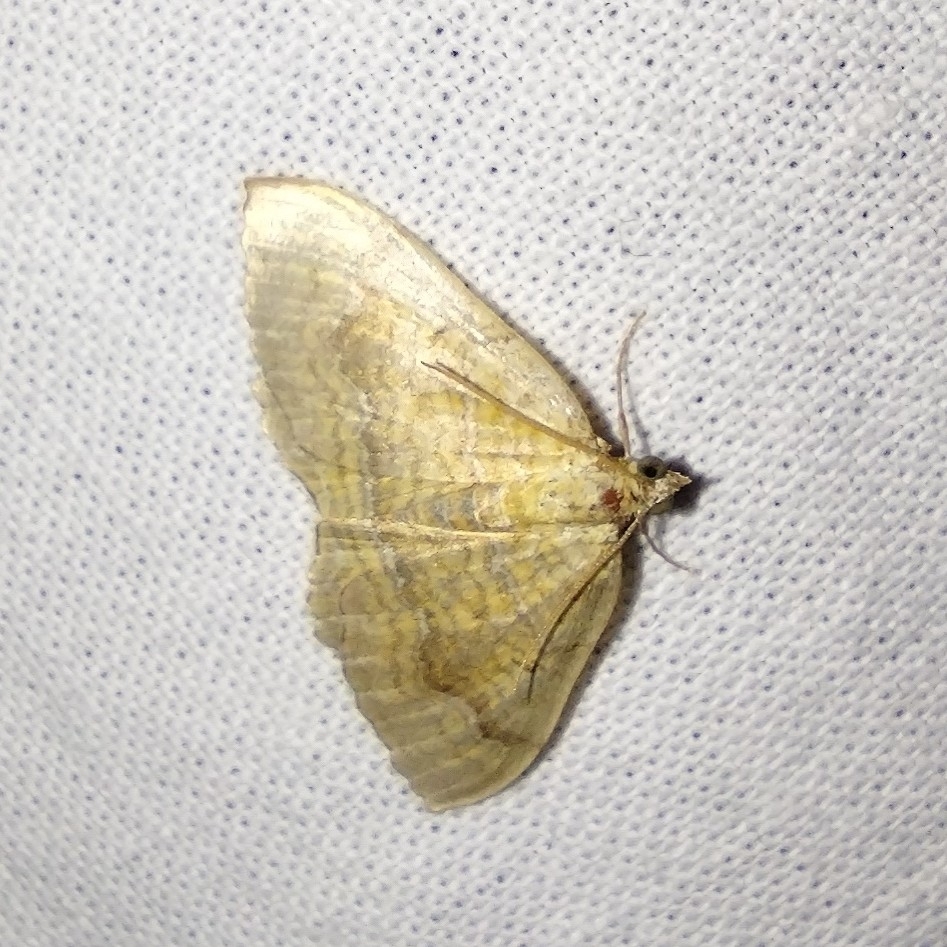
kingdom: Animalia
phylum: Arthropoda
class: Insecta
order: Lepidoptera
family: Geometridae
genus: Camptogramma
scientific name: Camptogramma bilineata
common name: Yellow shell
